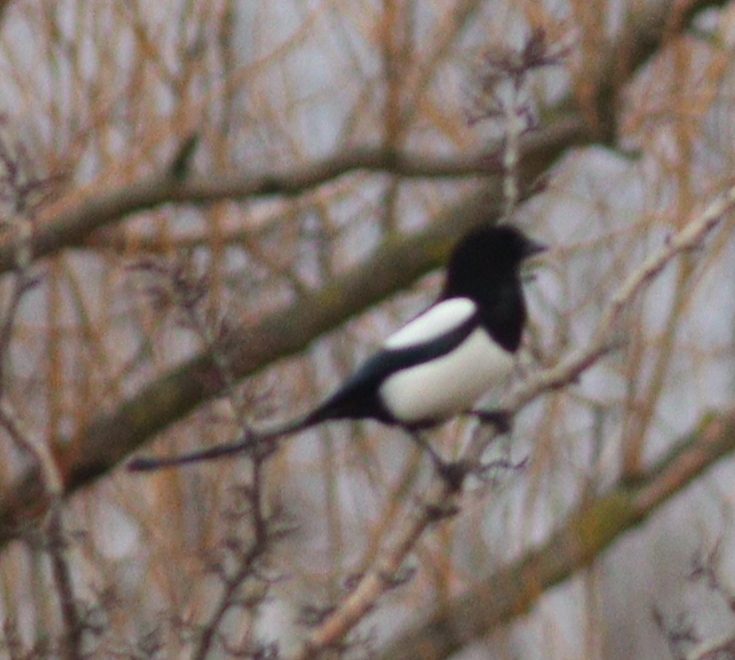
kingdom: Animalia
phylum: Chordata
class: Aves
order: Passeriformes
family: Corvidae
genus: Pica
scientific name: Pica pica
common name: Eurasian magpie
